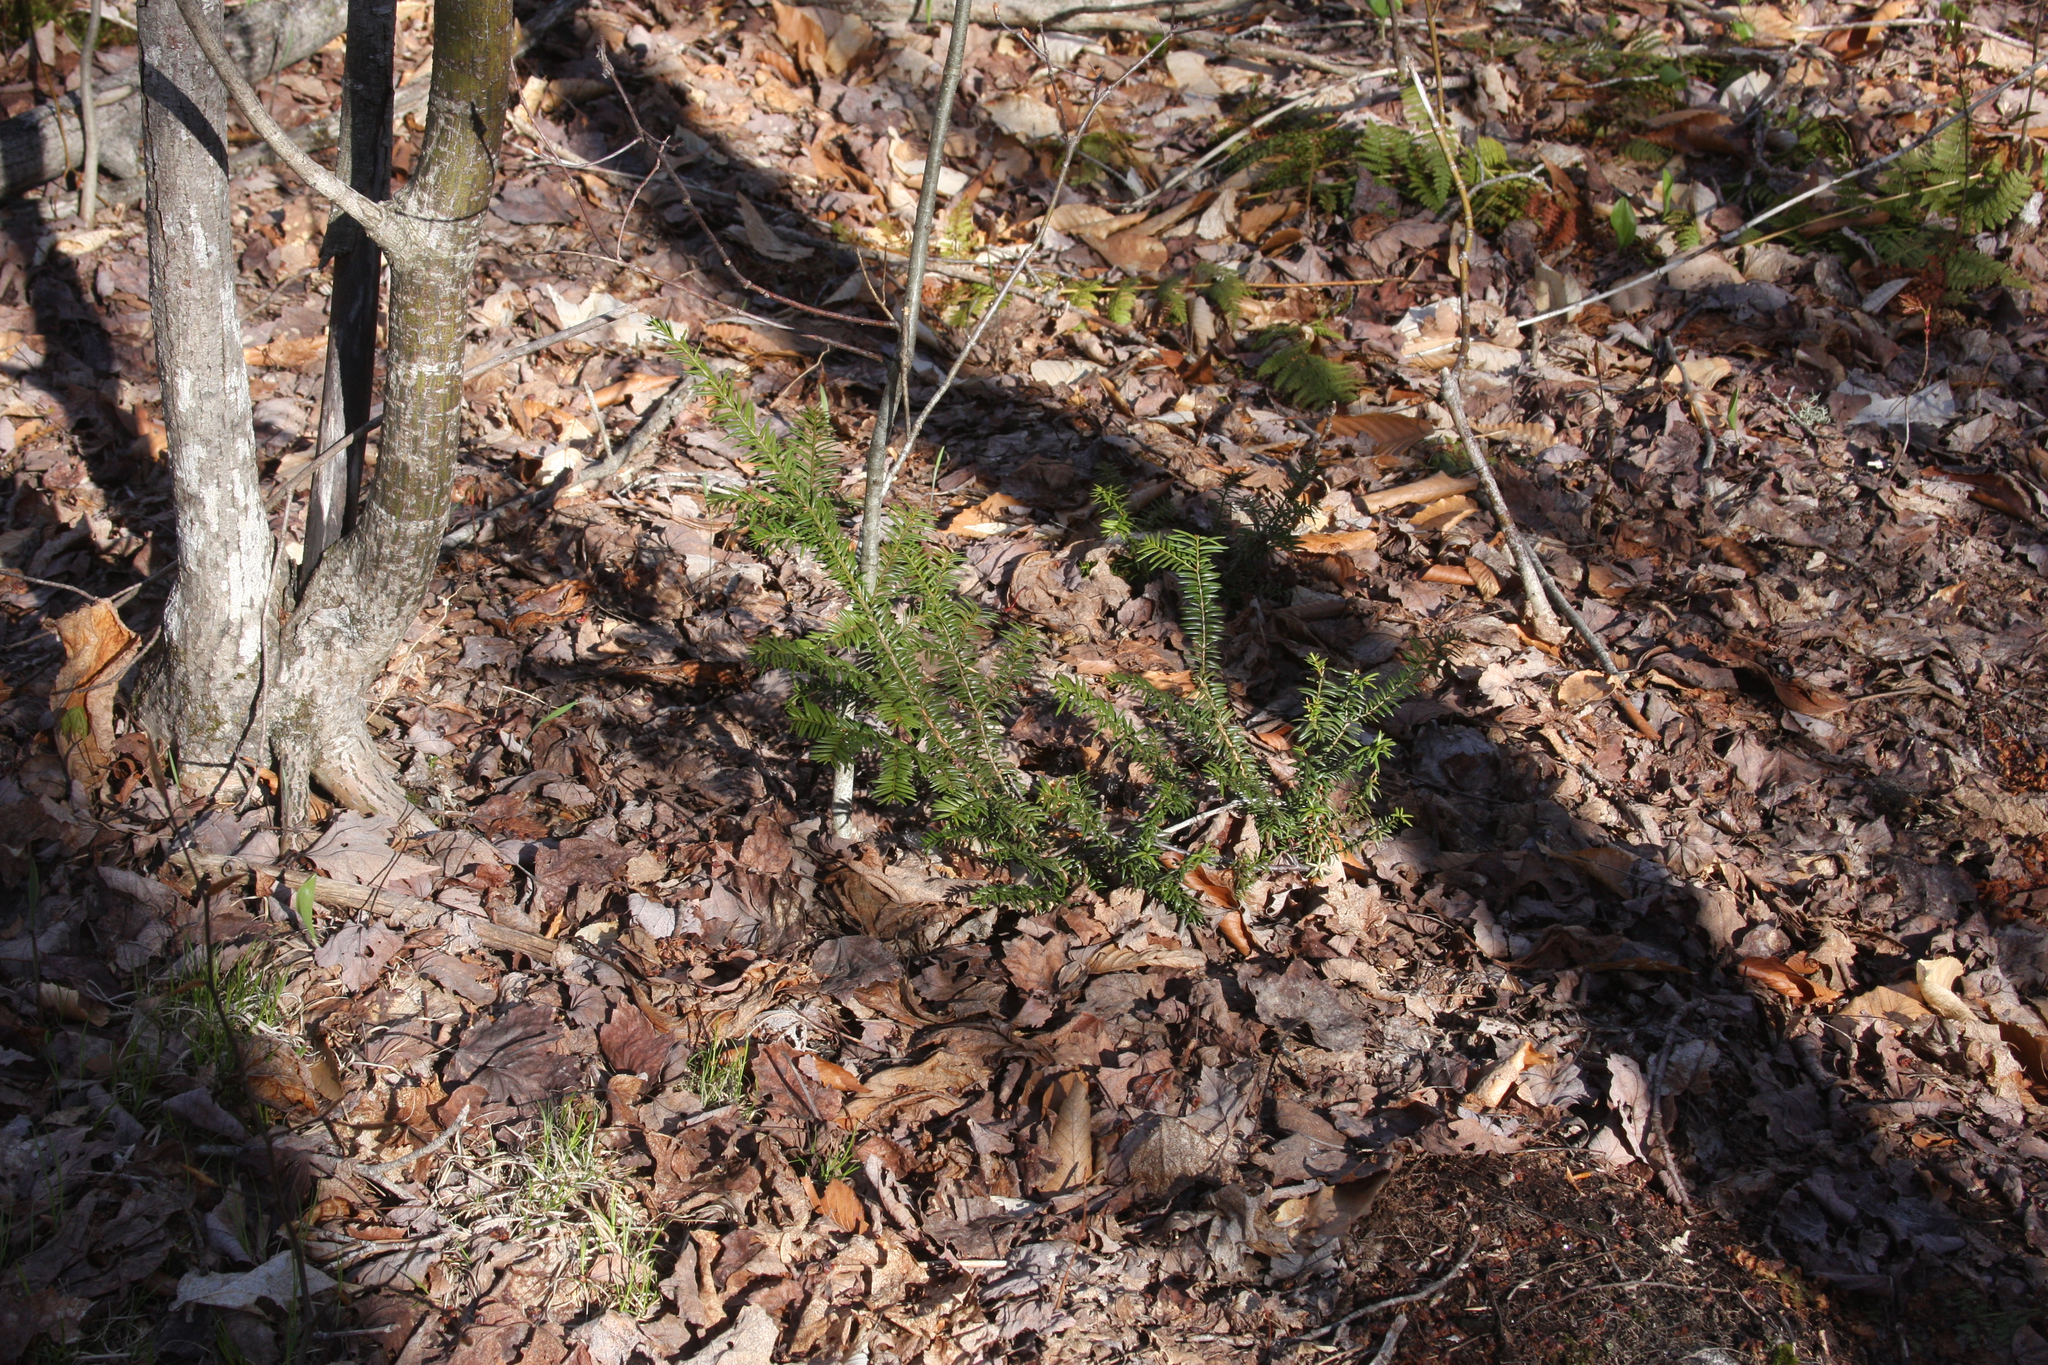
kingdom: Plantae
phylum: Tracheophyta
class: Pinopsida
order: Pinales
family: Taxaceae
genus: Taxus
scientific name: Taxus canadensis
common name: American yew
